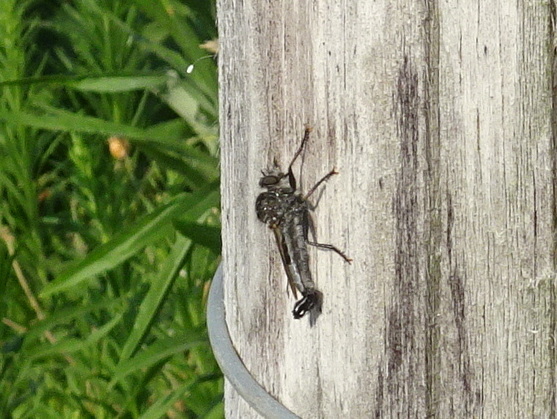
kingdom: Animalia
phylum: Arthropoda
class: Insecta
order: Diptera
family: Asilidae
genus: Efferia
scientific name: Efferia aestuans
